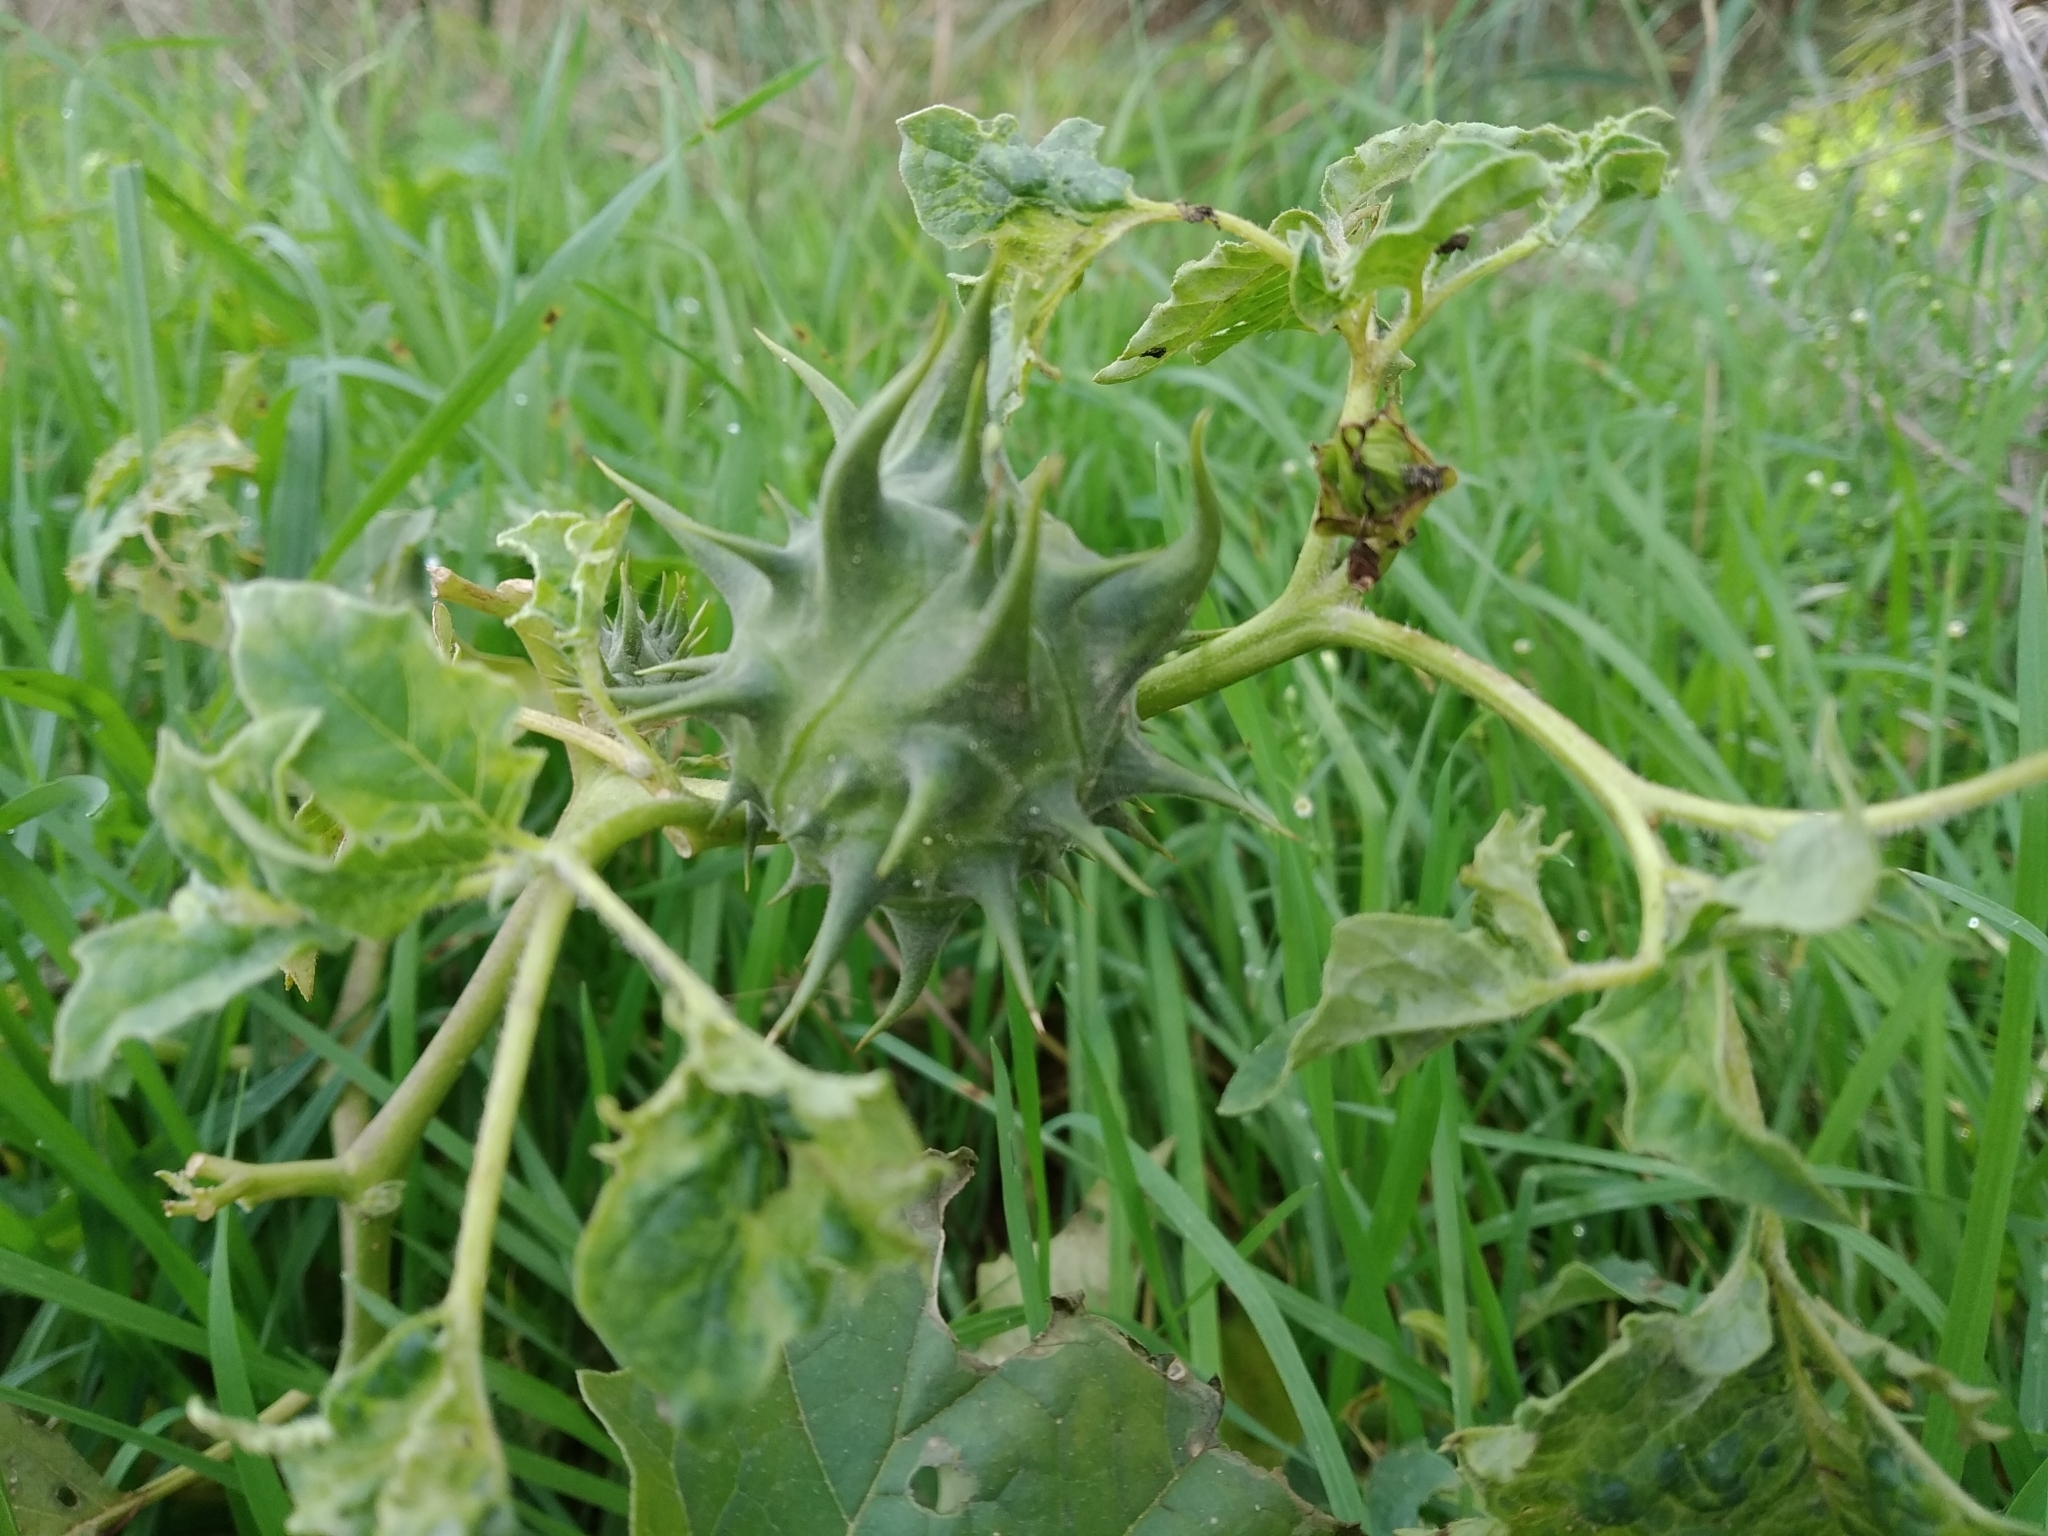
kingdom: Plantae
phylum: Tracheophyta
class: Magnoliopsida
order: Solanales
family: Solanaceae
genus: Datura
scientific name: Datura ferox
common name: Angel's-trumpets
